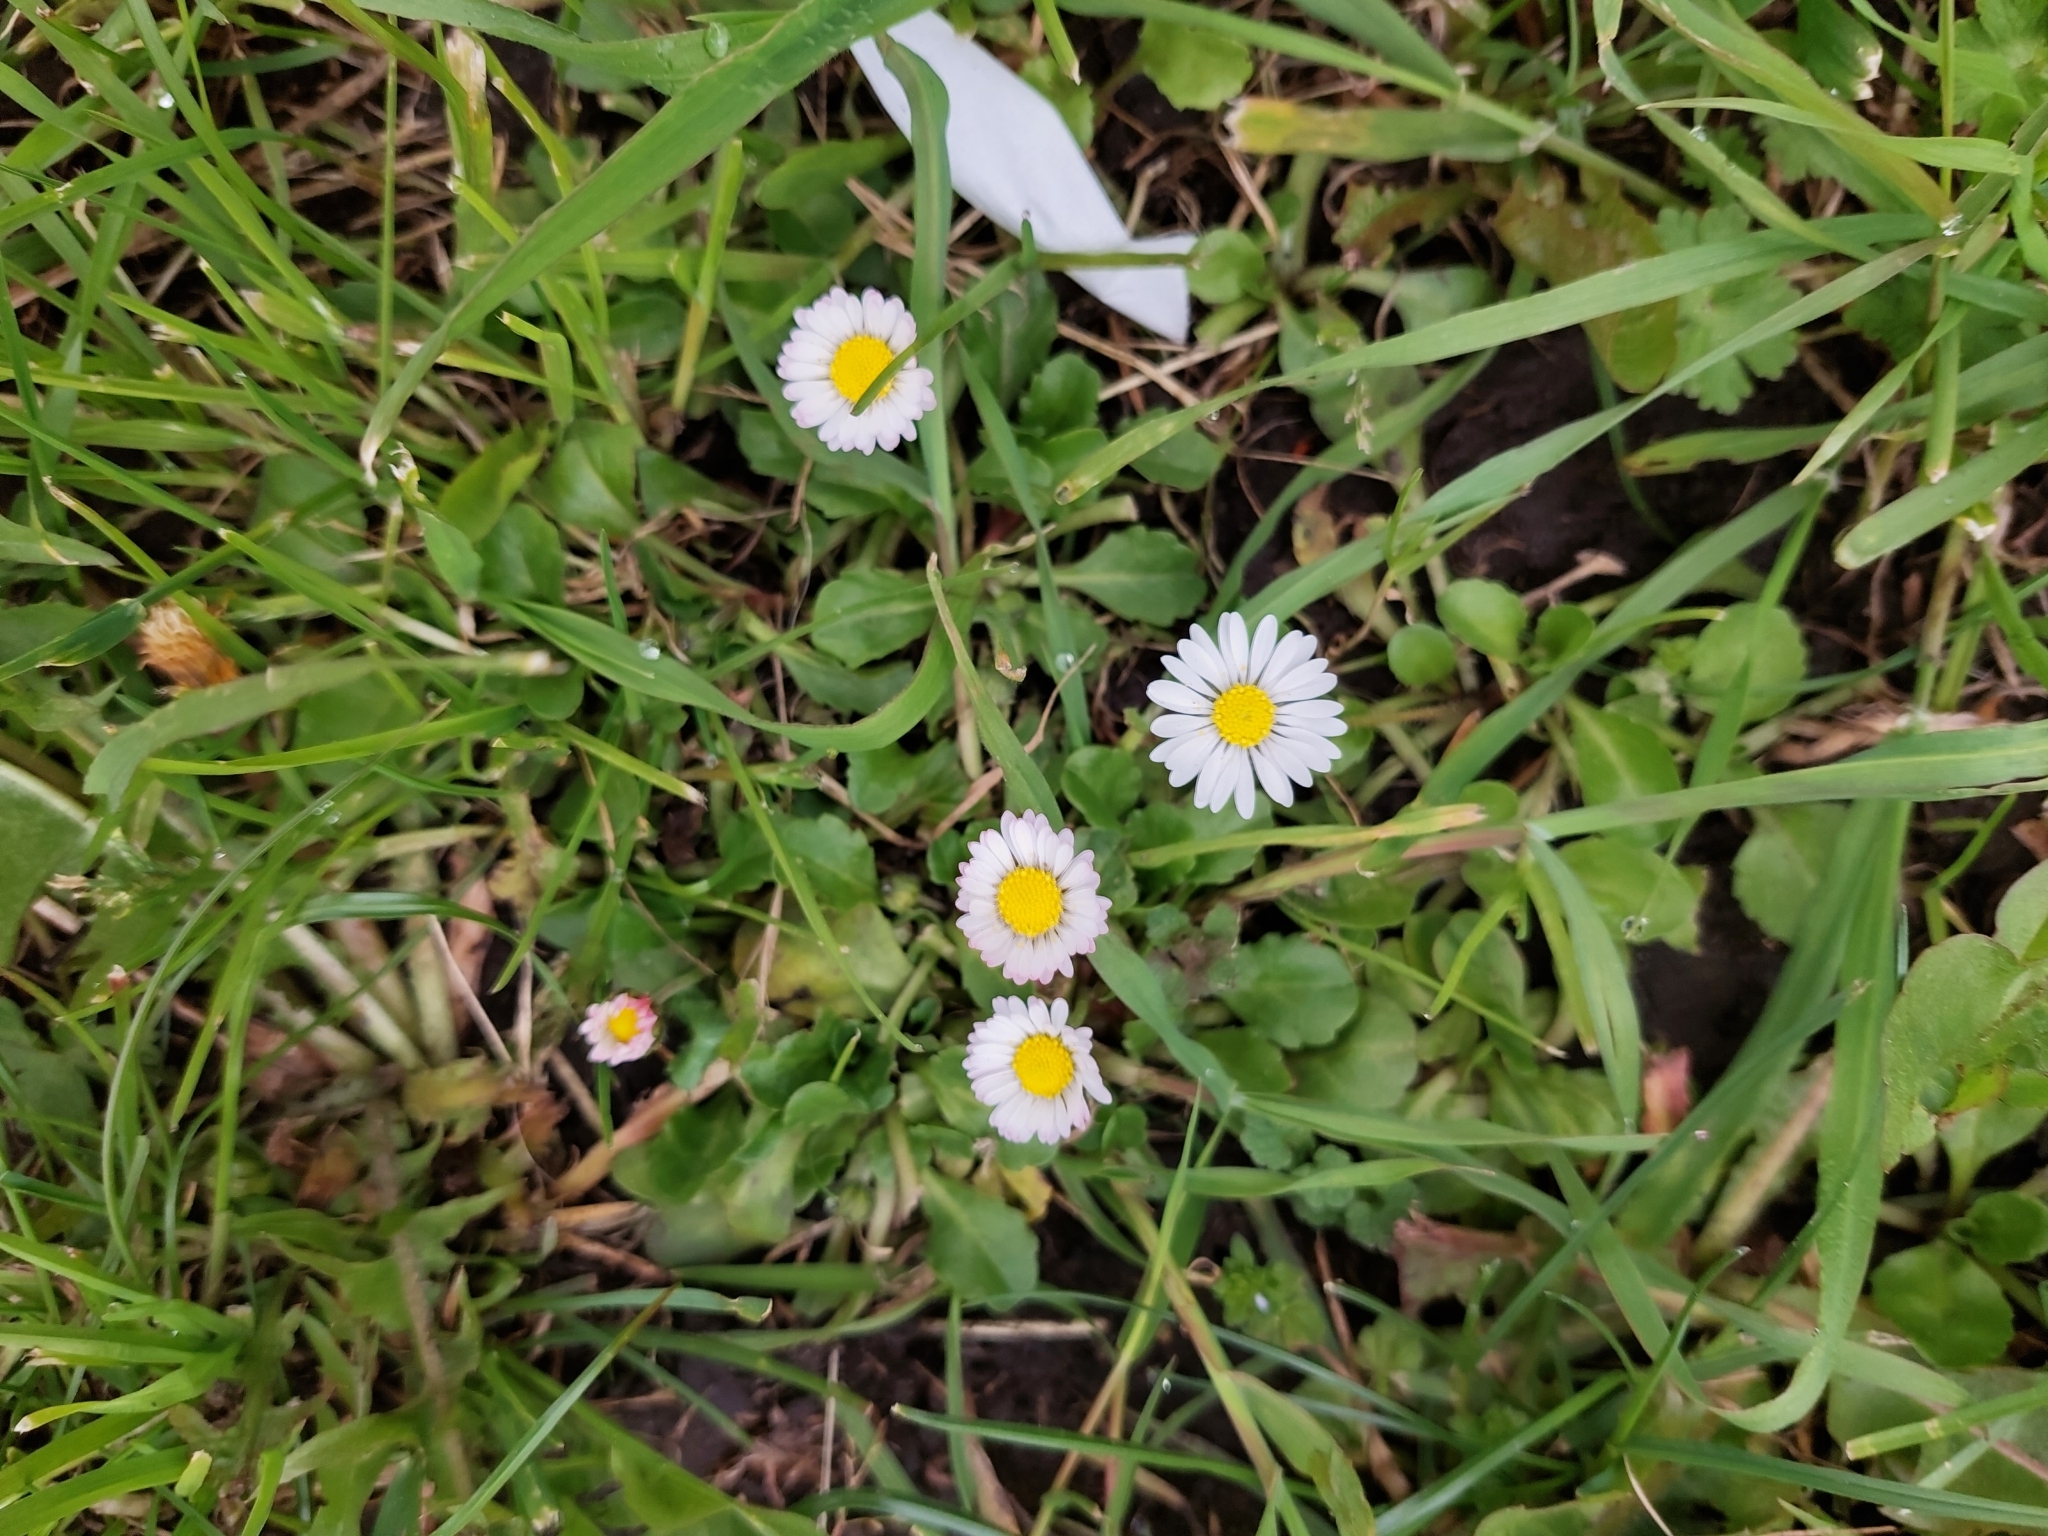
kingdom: Plantae
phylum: Tracheophyta
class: Magnoliopsida
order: Asterales
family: Asteraceae
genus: Bellis
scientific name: Bellis perennis
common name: Lawndaisy
